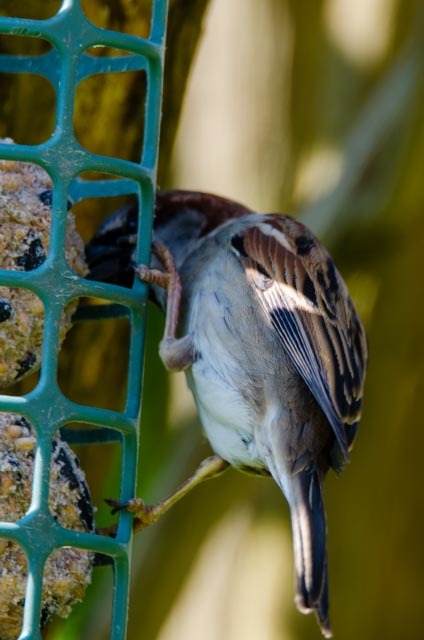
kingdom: Animalia
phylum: Chordata
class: Aves
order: Passeriformes
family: Passeridae
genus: Passer
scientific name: Passer domesticus
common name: House sparrow
